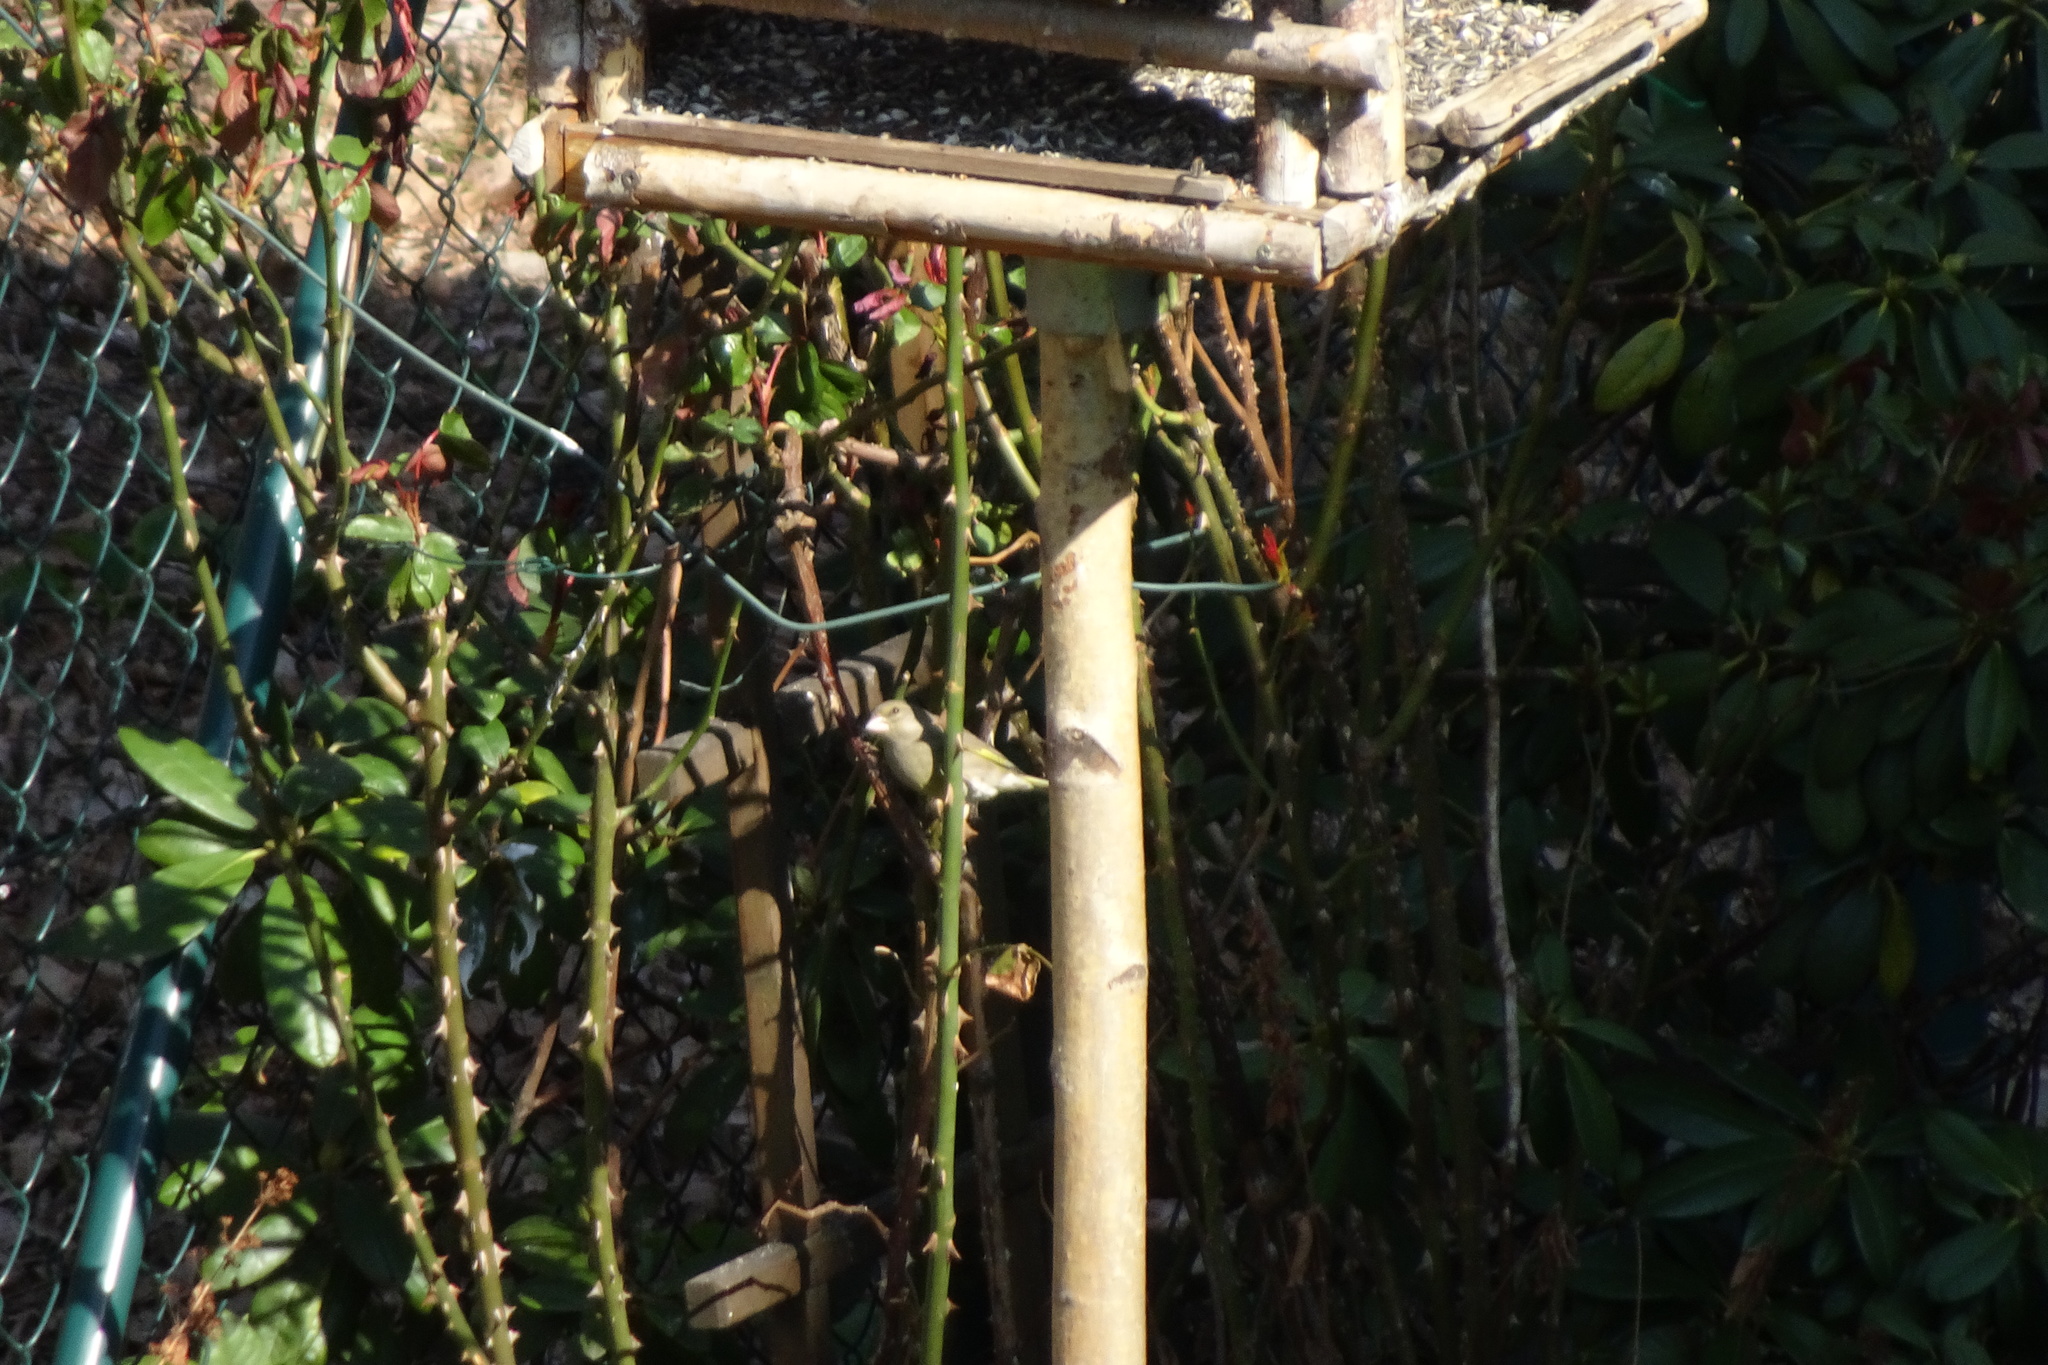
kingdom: Plantae
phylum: Tracheophyta
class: Liliopsida
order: Poales
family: Poaceae
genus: Chloris
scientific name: Chloris chloris
